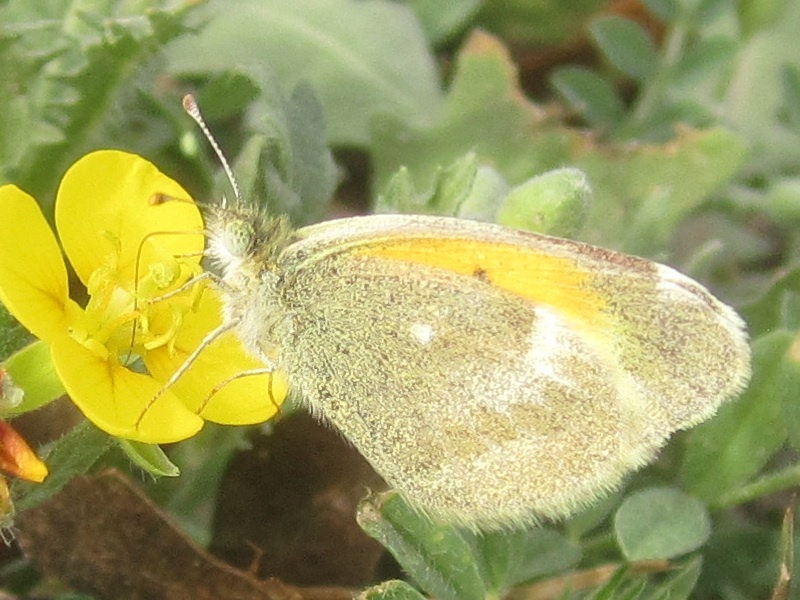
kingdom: Animalia
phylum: Arthropoda
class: Insecta
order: Lepidoptera
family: Pieridae
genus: Nathalis
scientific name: Nathalis iole
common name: Dainty sulphur
